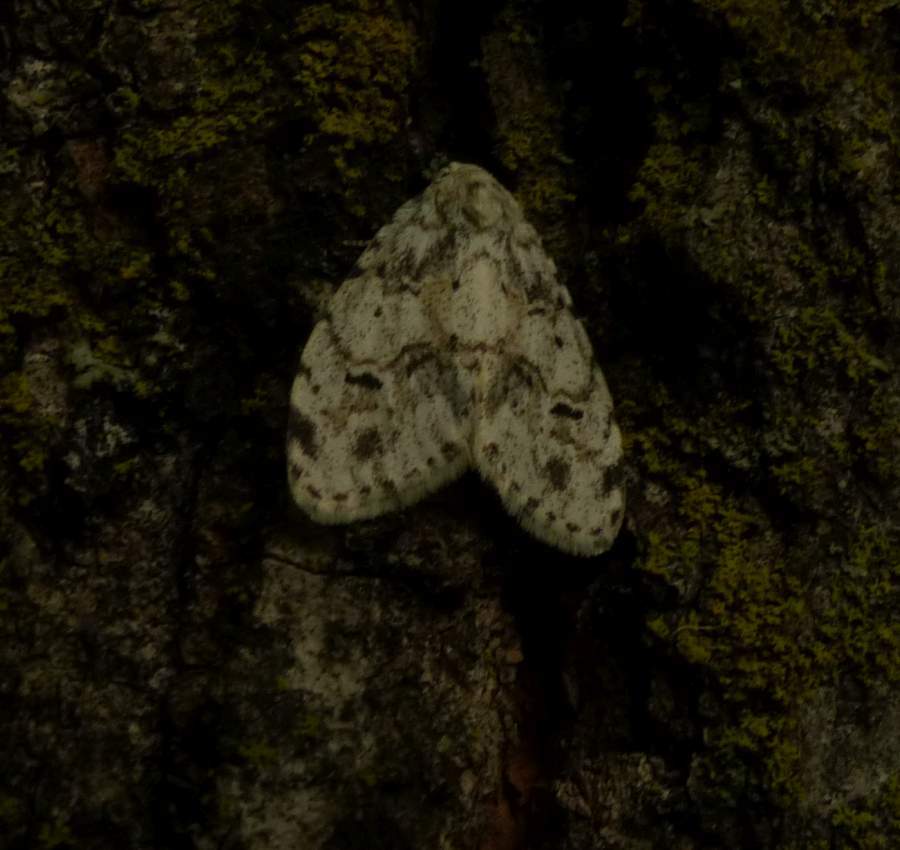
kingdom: Animalia
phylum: Arthropoda
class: Insecta
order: Lepidoptera
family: Erebidae
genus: Clemensia
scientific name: Clemensia albata
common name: Little white lichen moth
